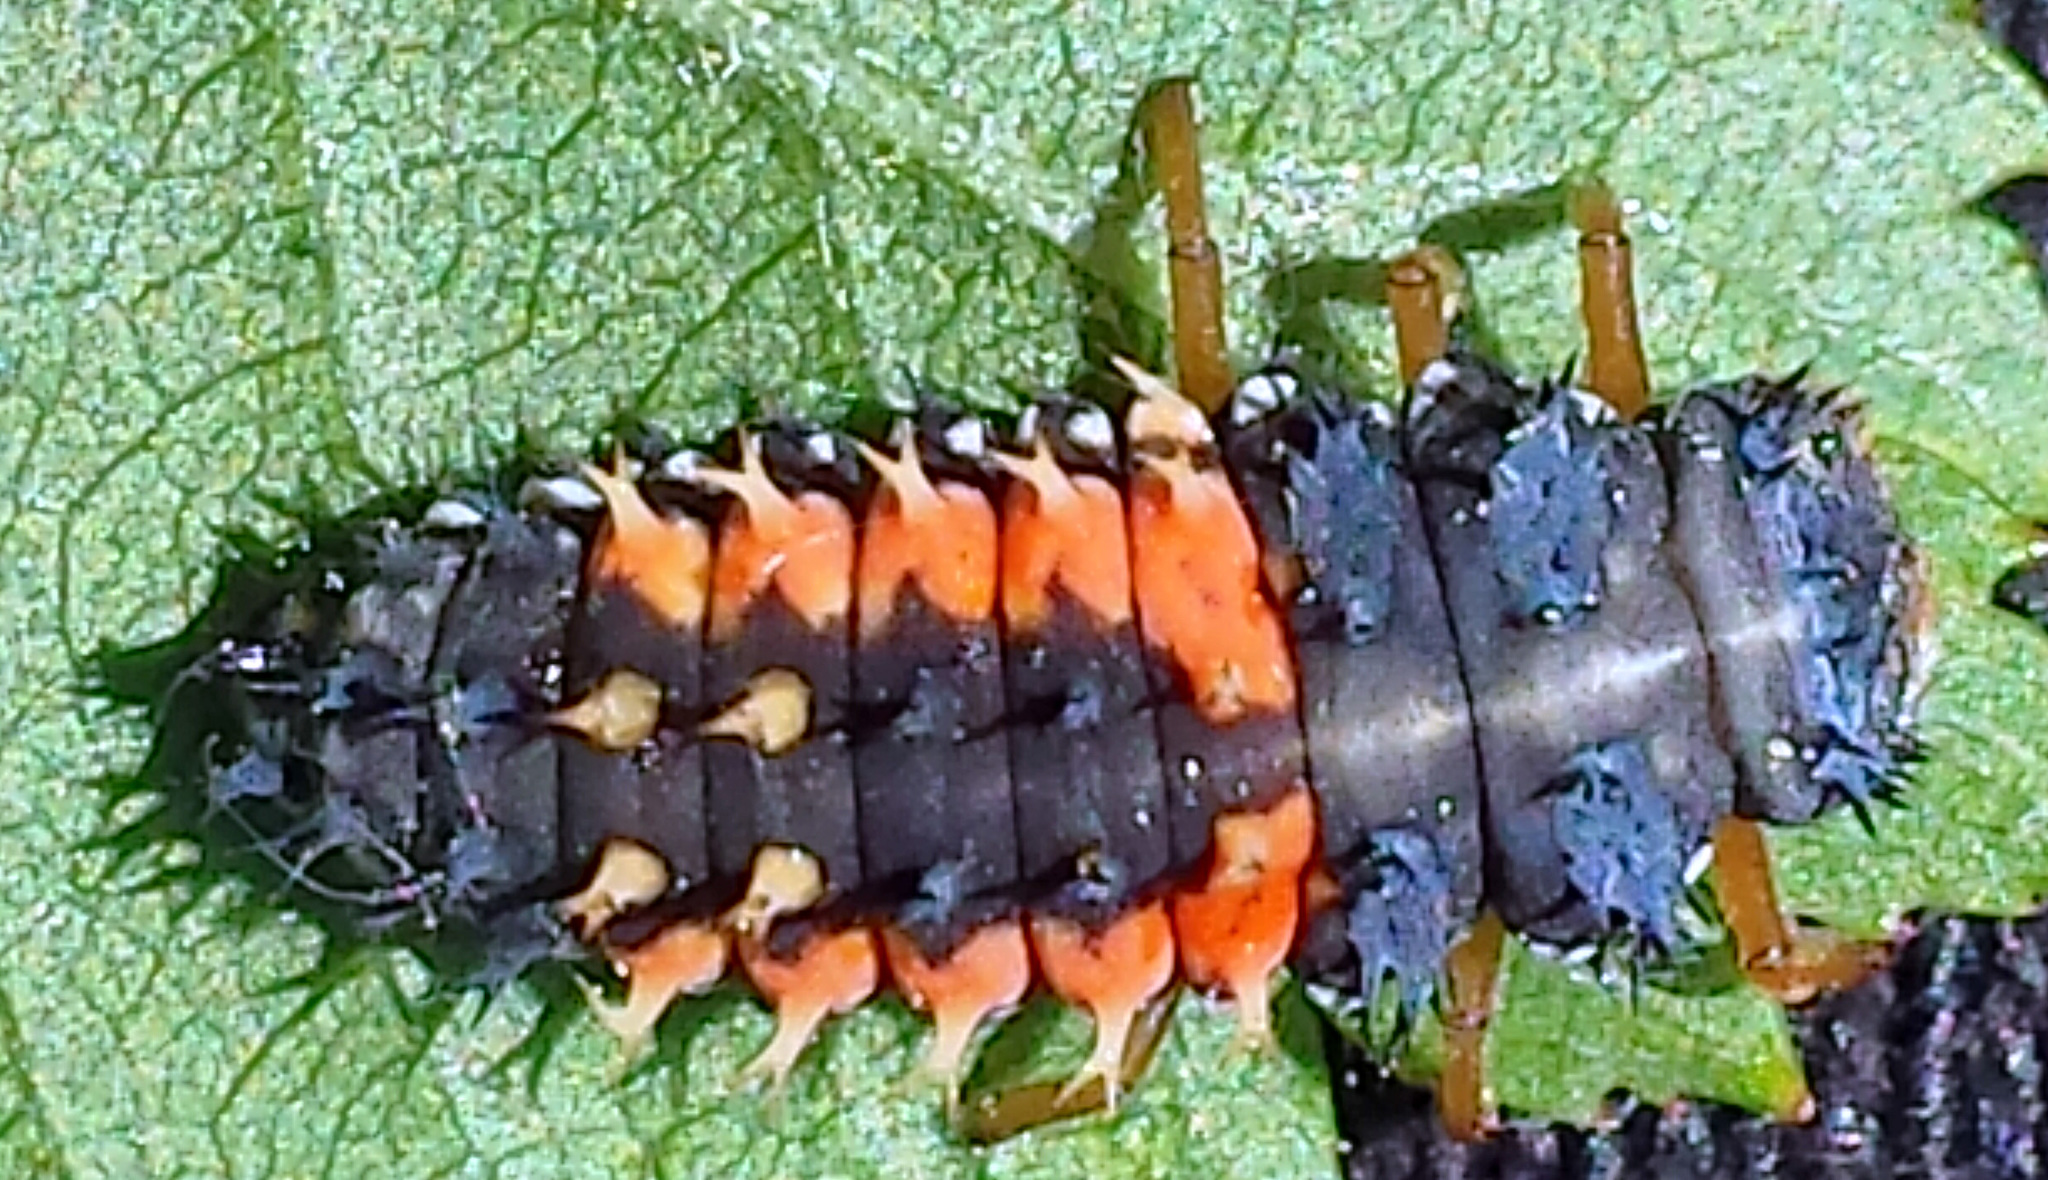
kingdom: Animalia
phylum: Arthropoda
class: Insecta
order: Coleoptera
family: Coccinellidae
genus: Harmonia
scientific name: Harmonia axyridis
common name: Harlequin ladybird
